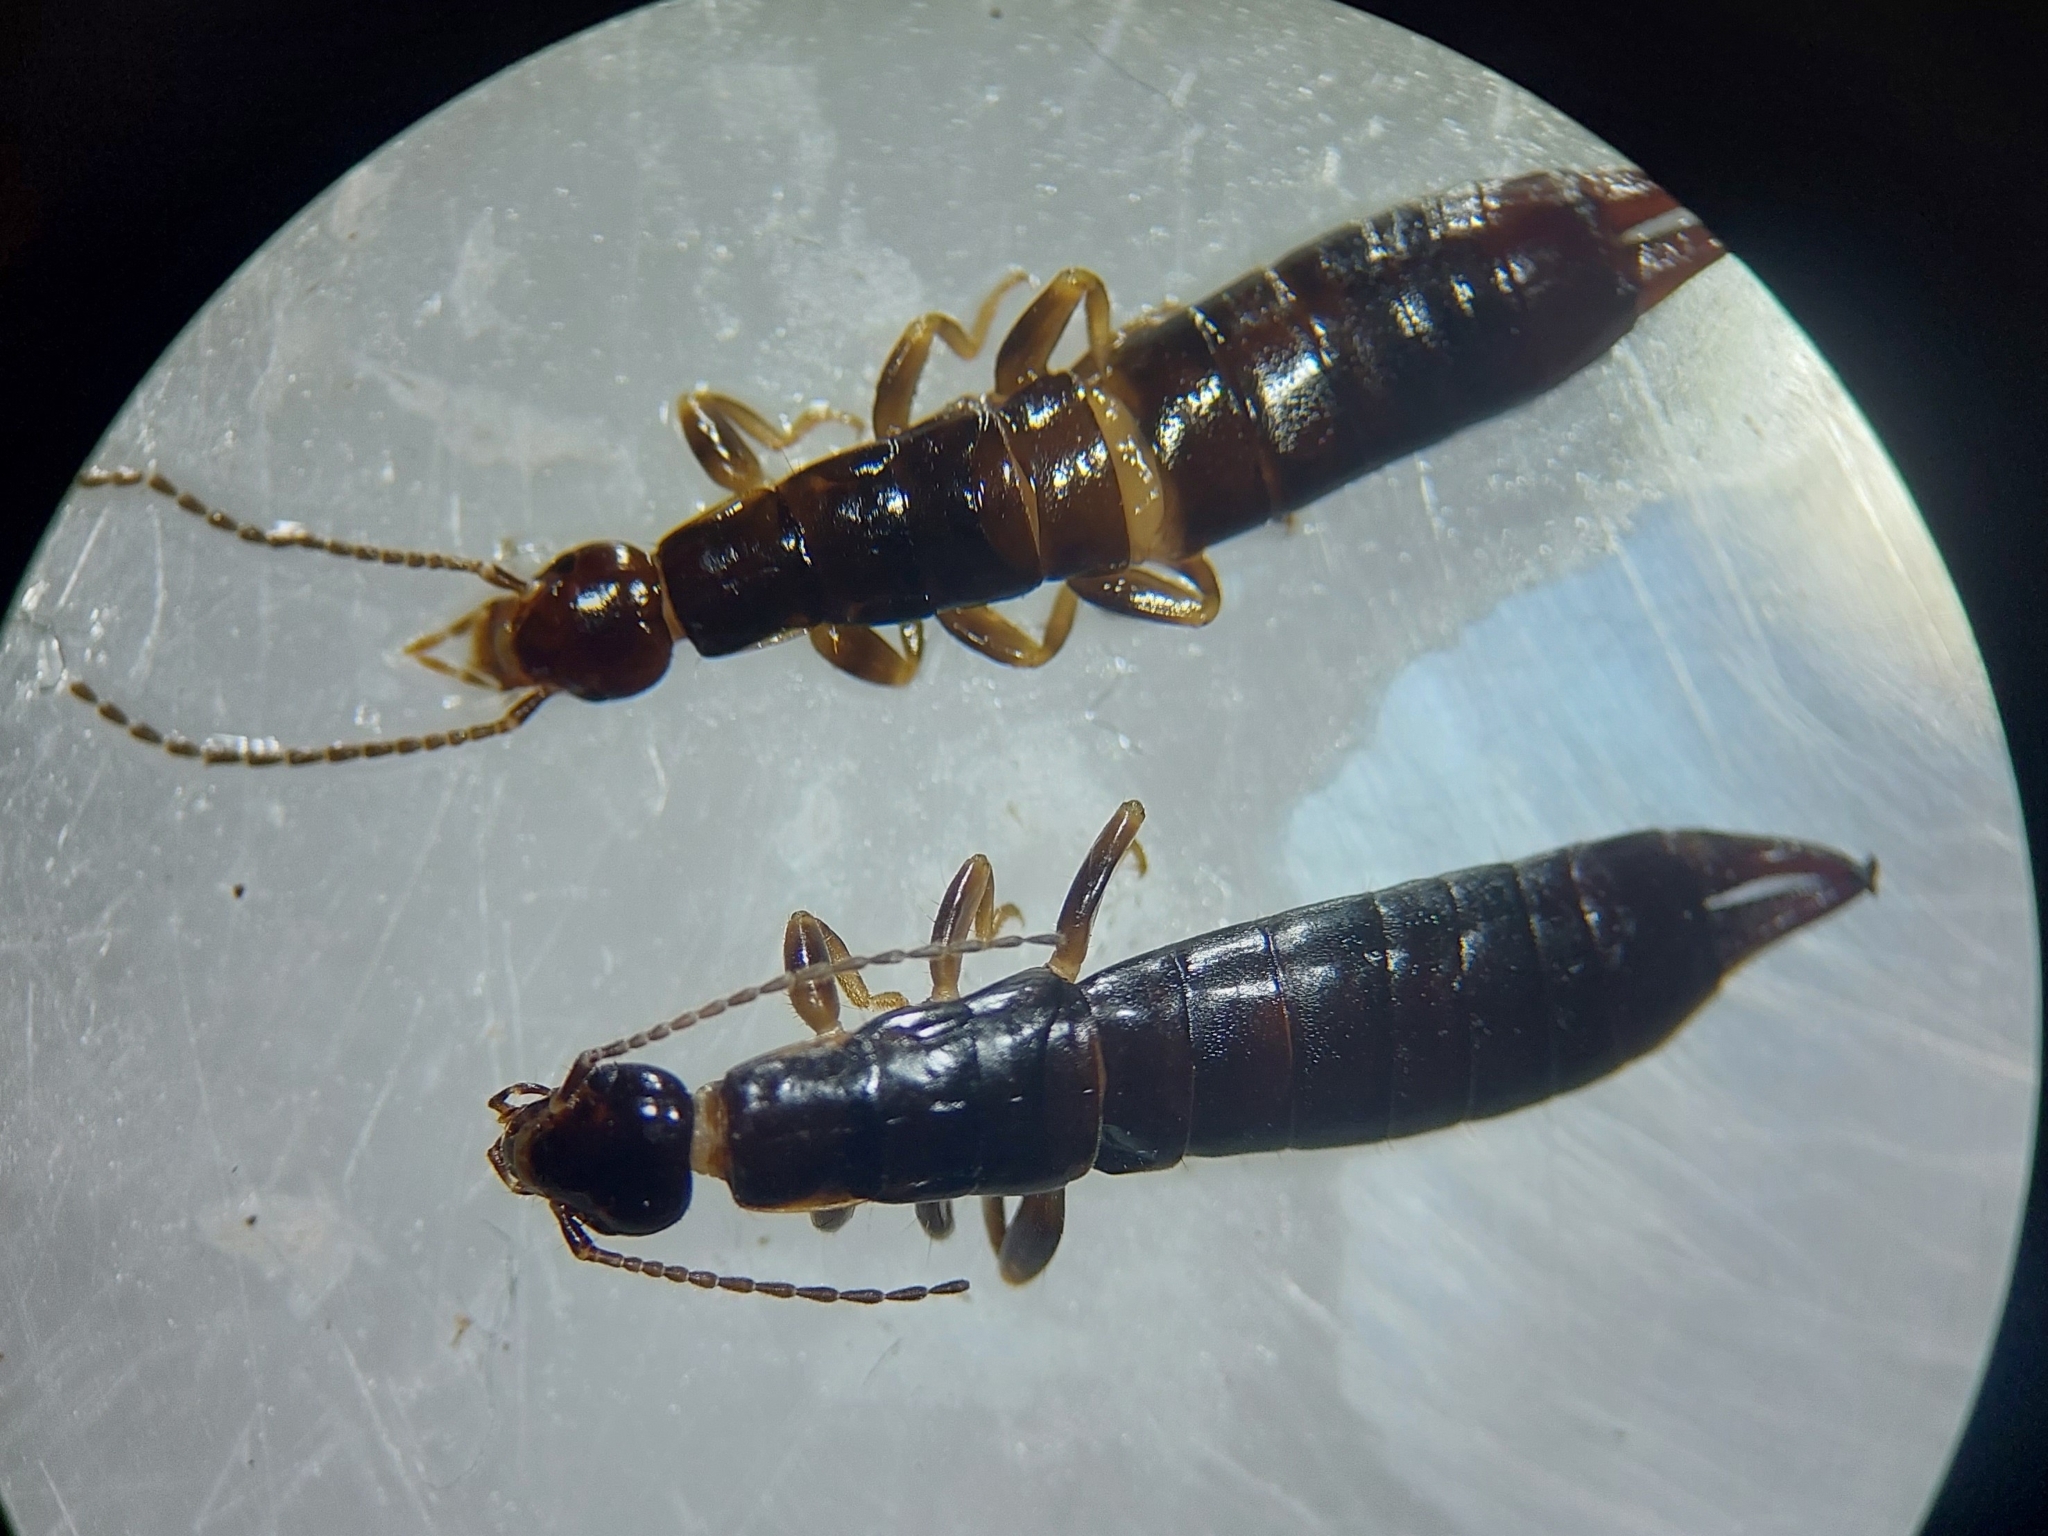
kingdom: Animalia
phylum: Arthropoda
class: Insecta
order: Dermaptera
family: Anisolabididae
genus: Euborellia
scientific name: Euborellia moesta
